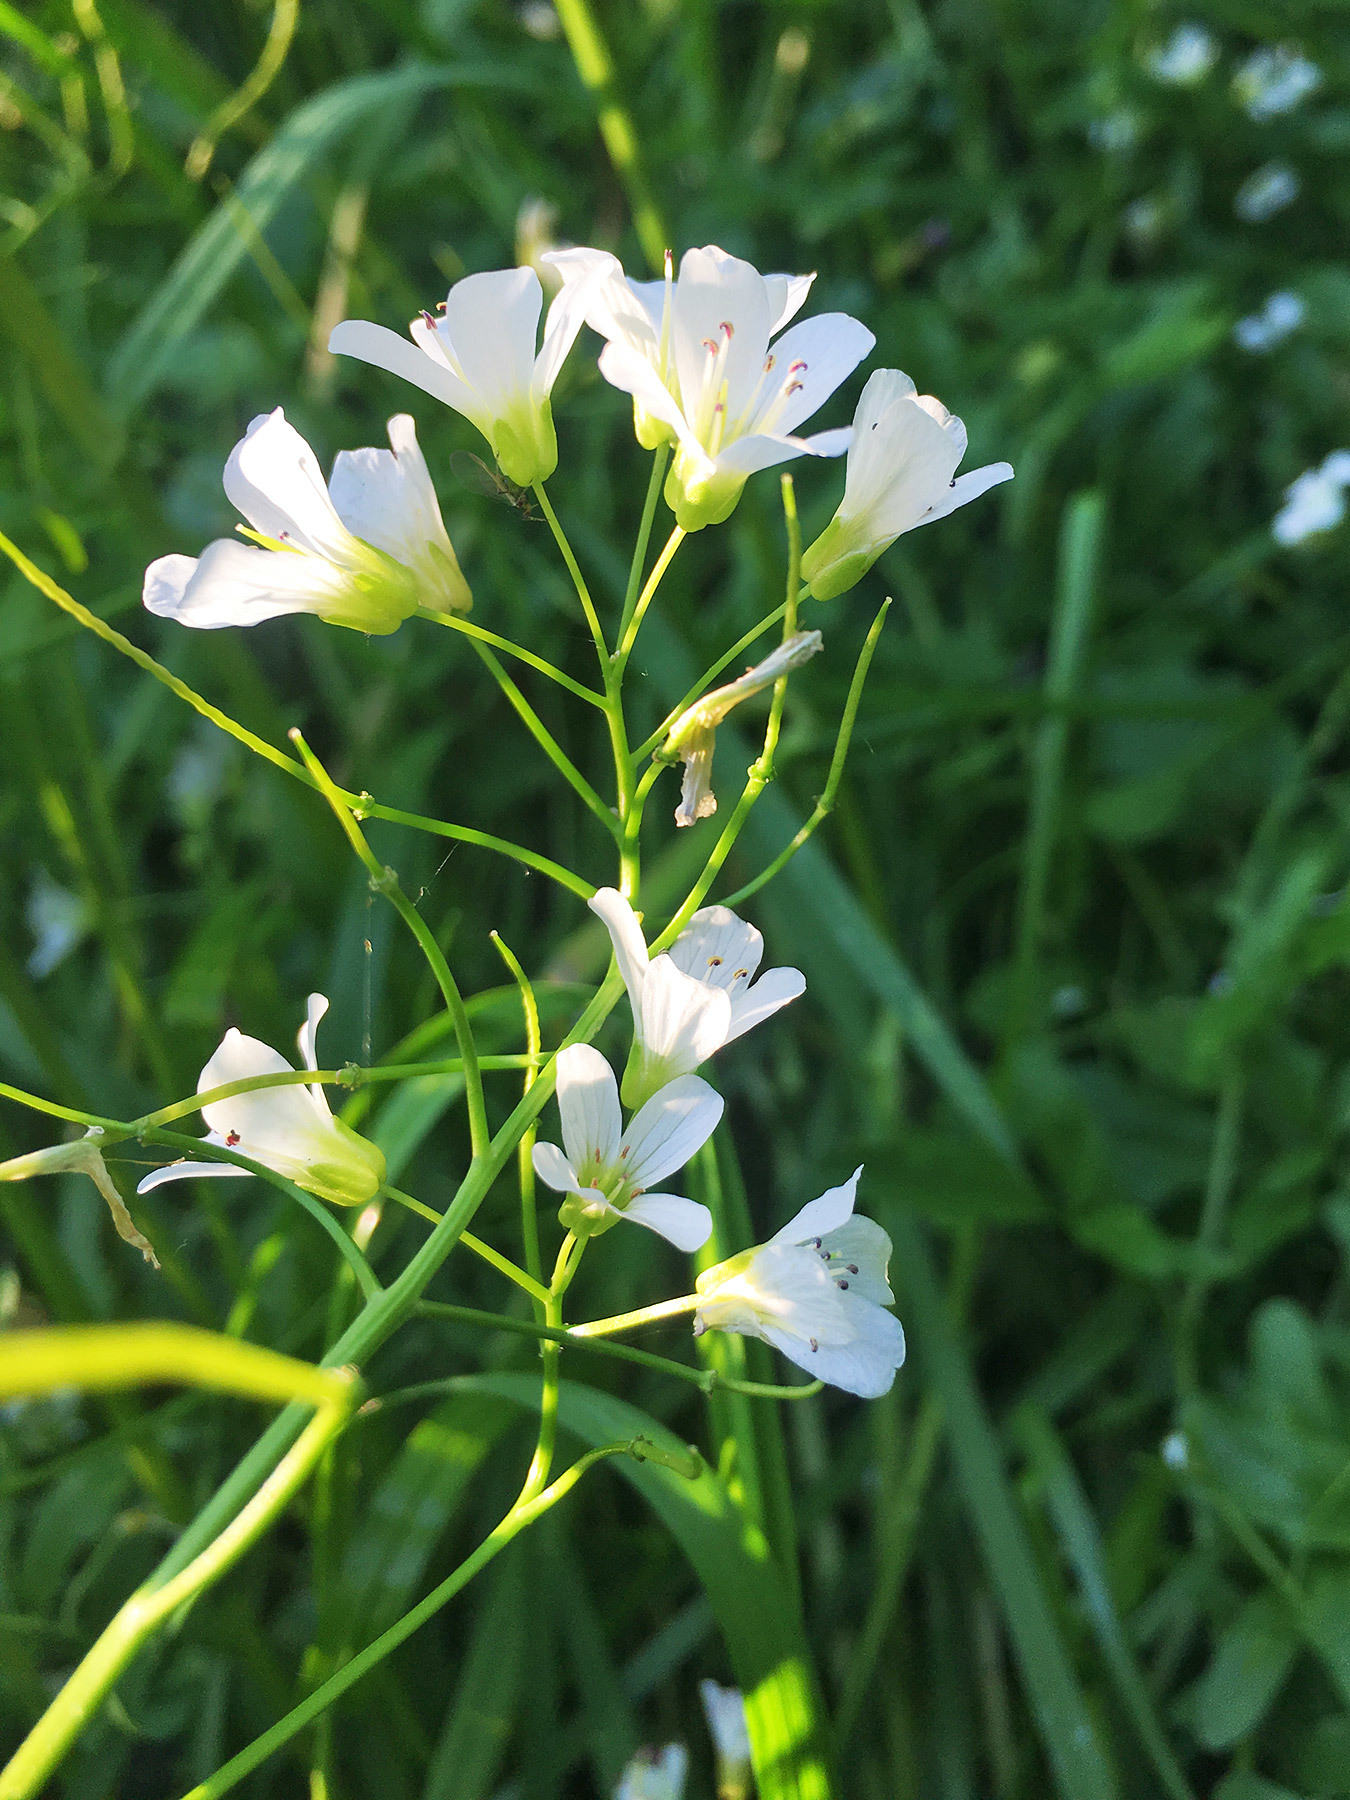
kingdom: Plantae
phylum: Tracheophyta
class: Magnoliopsida
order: Brassicales
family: Brassicaceae
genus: Cardamine
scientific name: Cardamine pratensis
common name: Cuckoo flower
